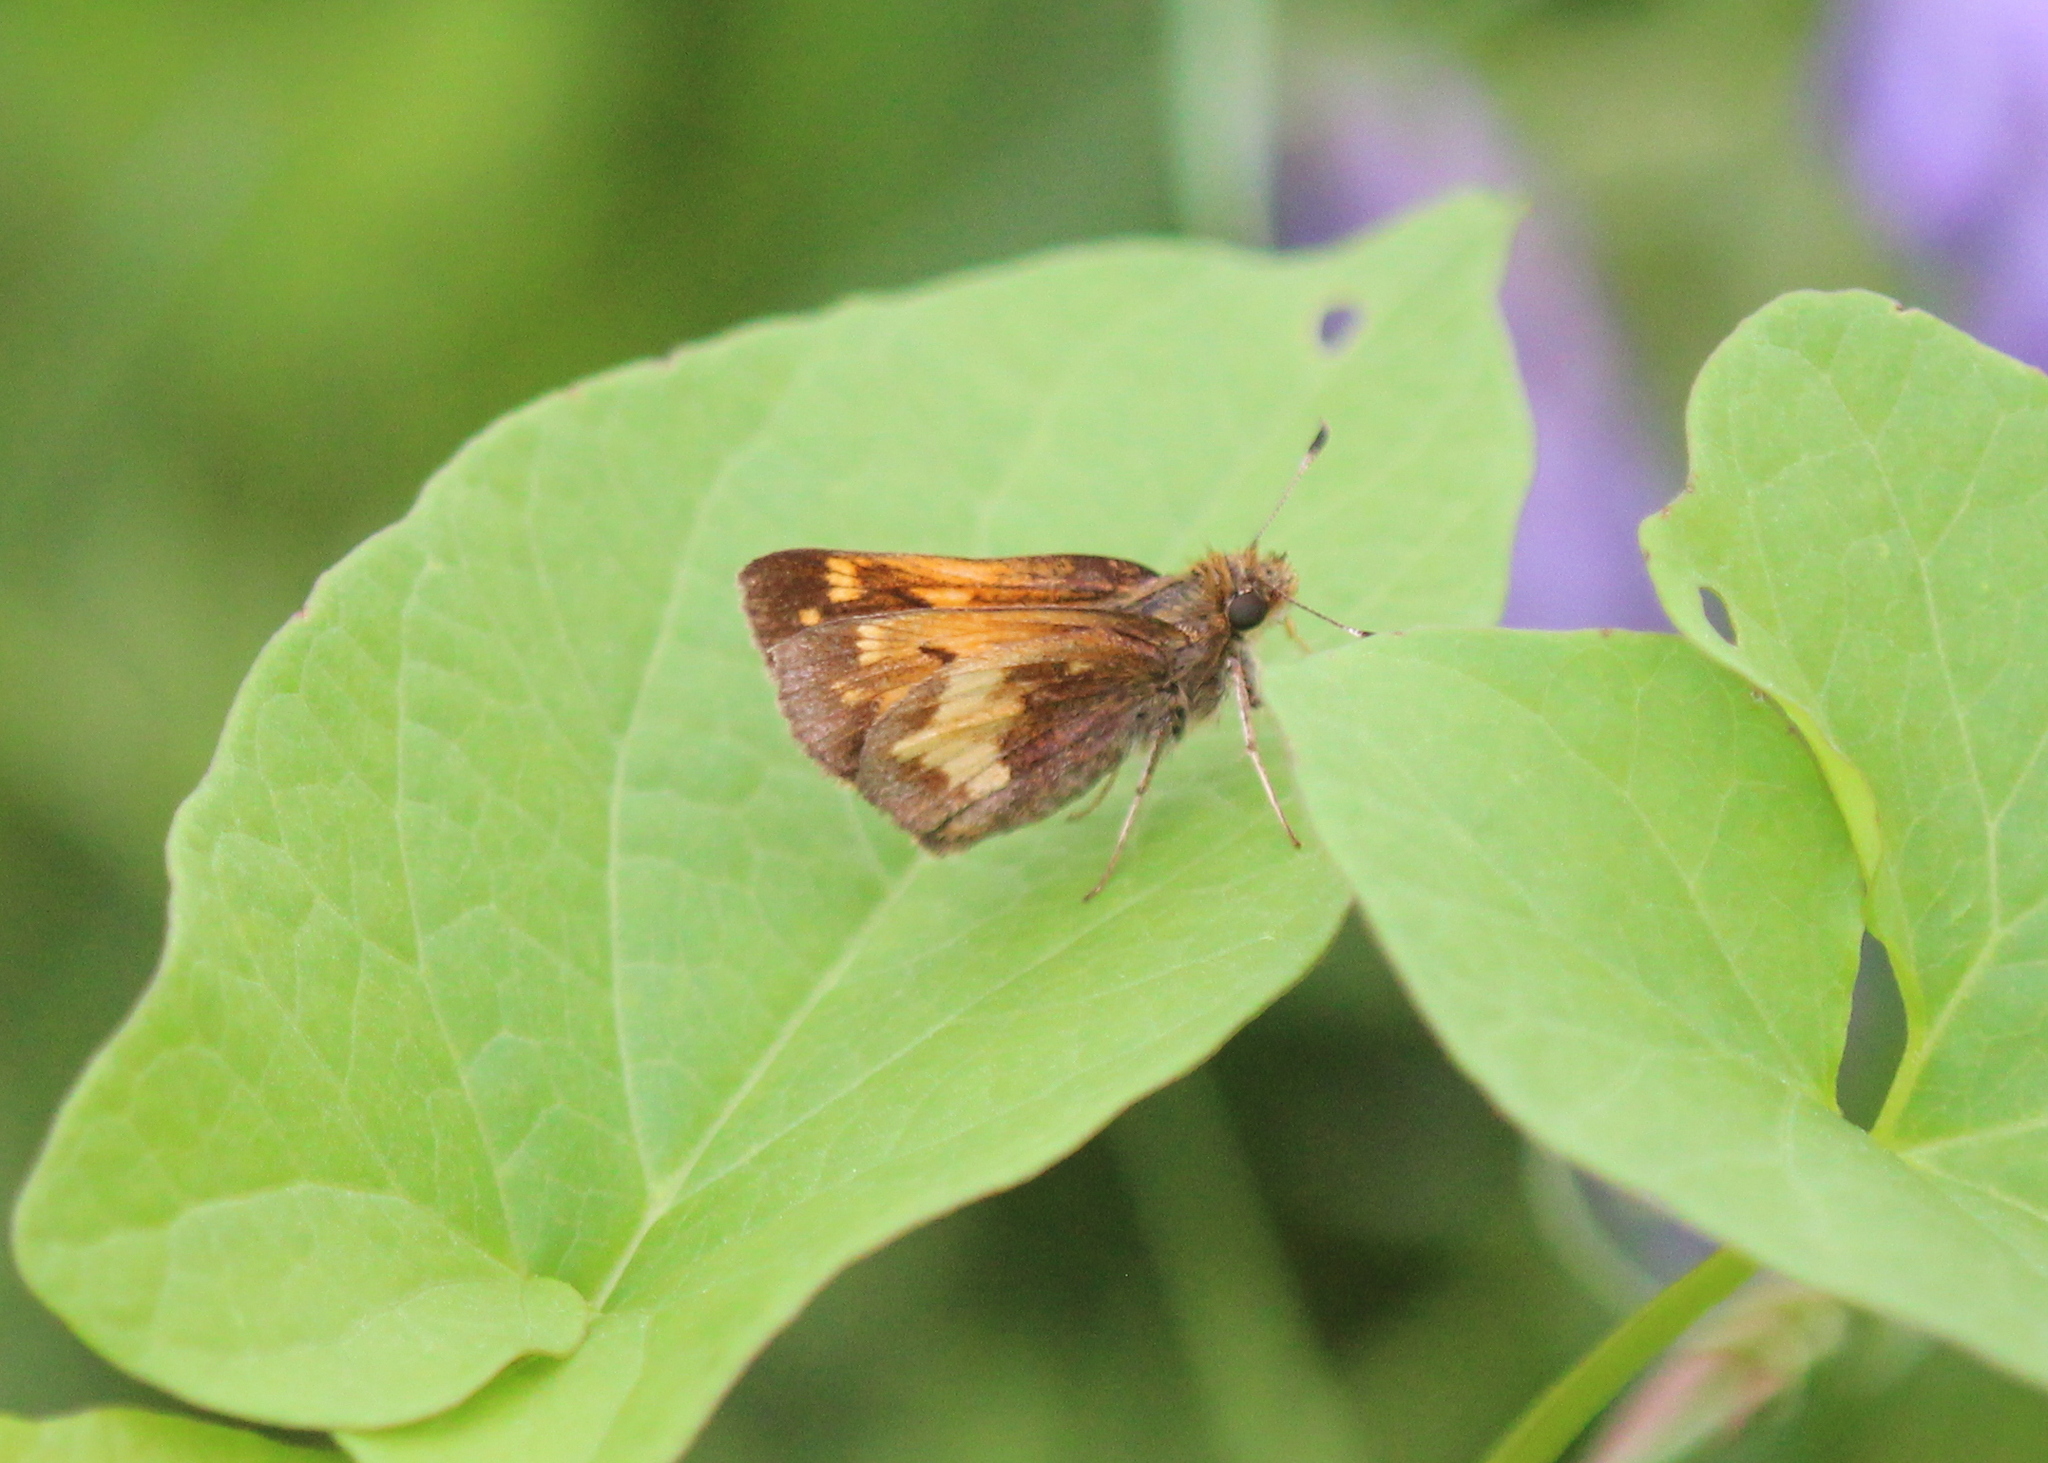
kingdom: Animalia
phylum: Arthropoda
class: Insecta
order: Lepidoptera
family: Hesperiidae
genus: Lon
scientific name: Lon hobomok
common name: Hobomok skipper
